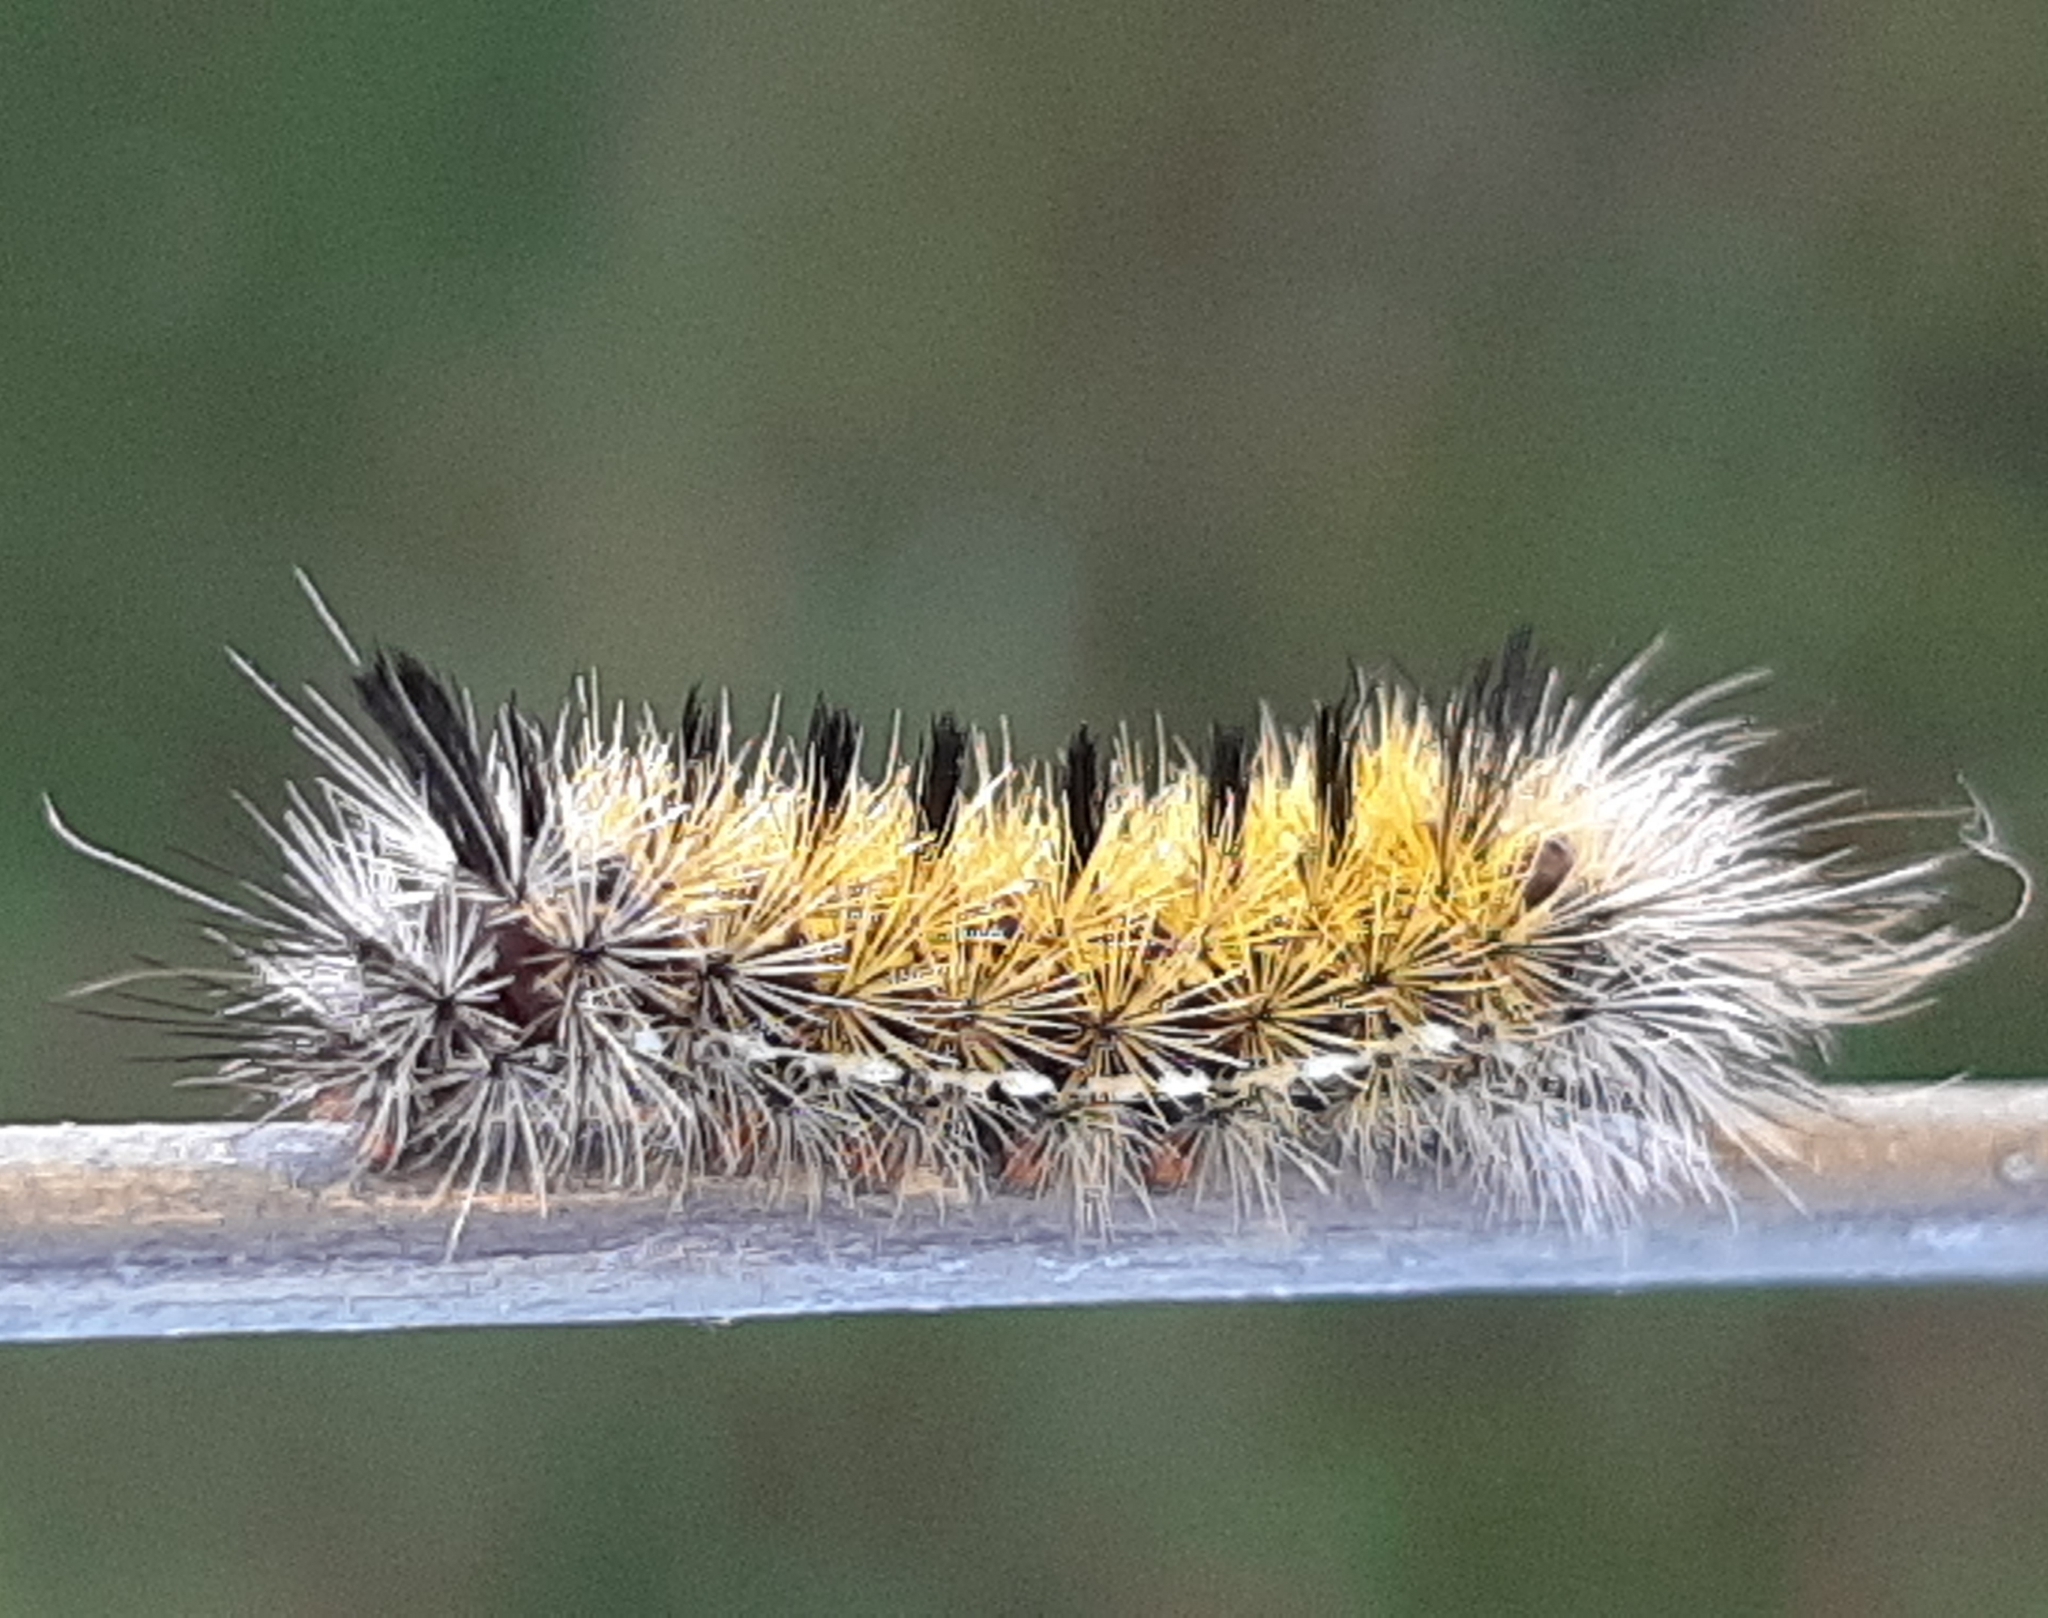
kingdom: Animalia
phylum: Arthropoda
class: Insecta
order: Lepidoptera
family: Erebidae
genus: Ctenucha
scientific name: Ctenucha virginica
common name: Virginia ctenucha moth
